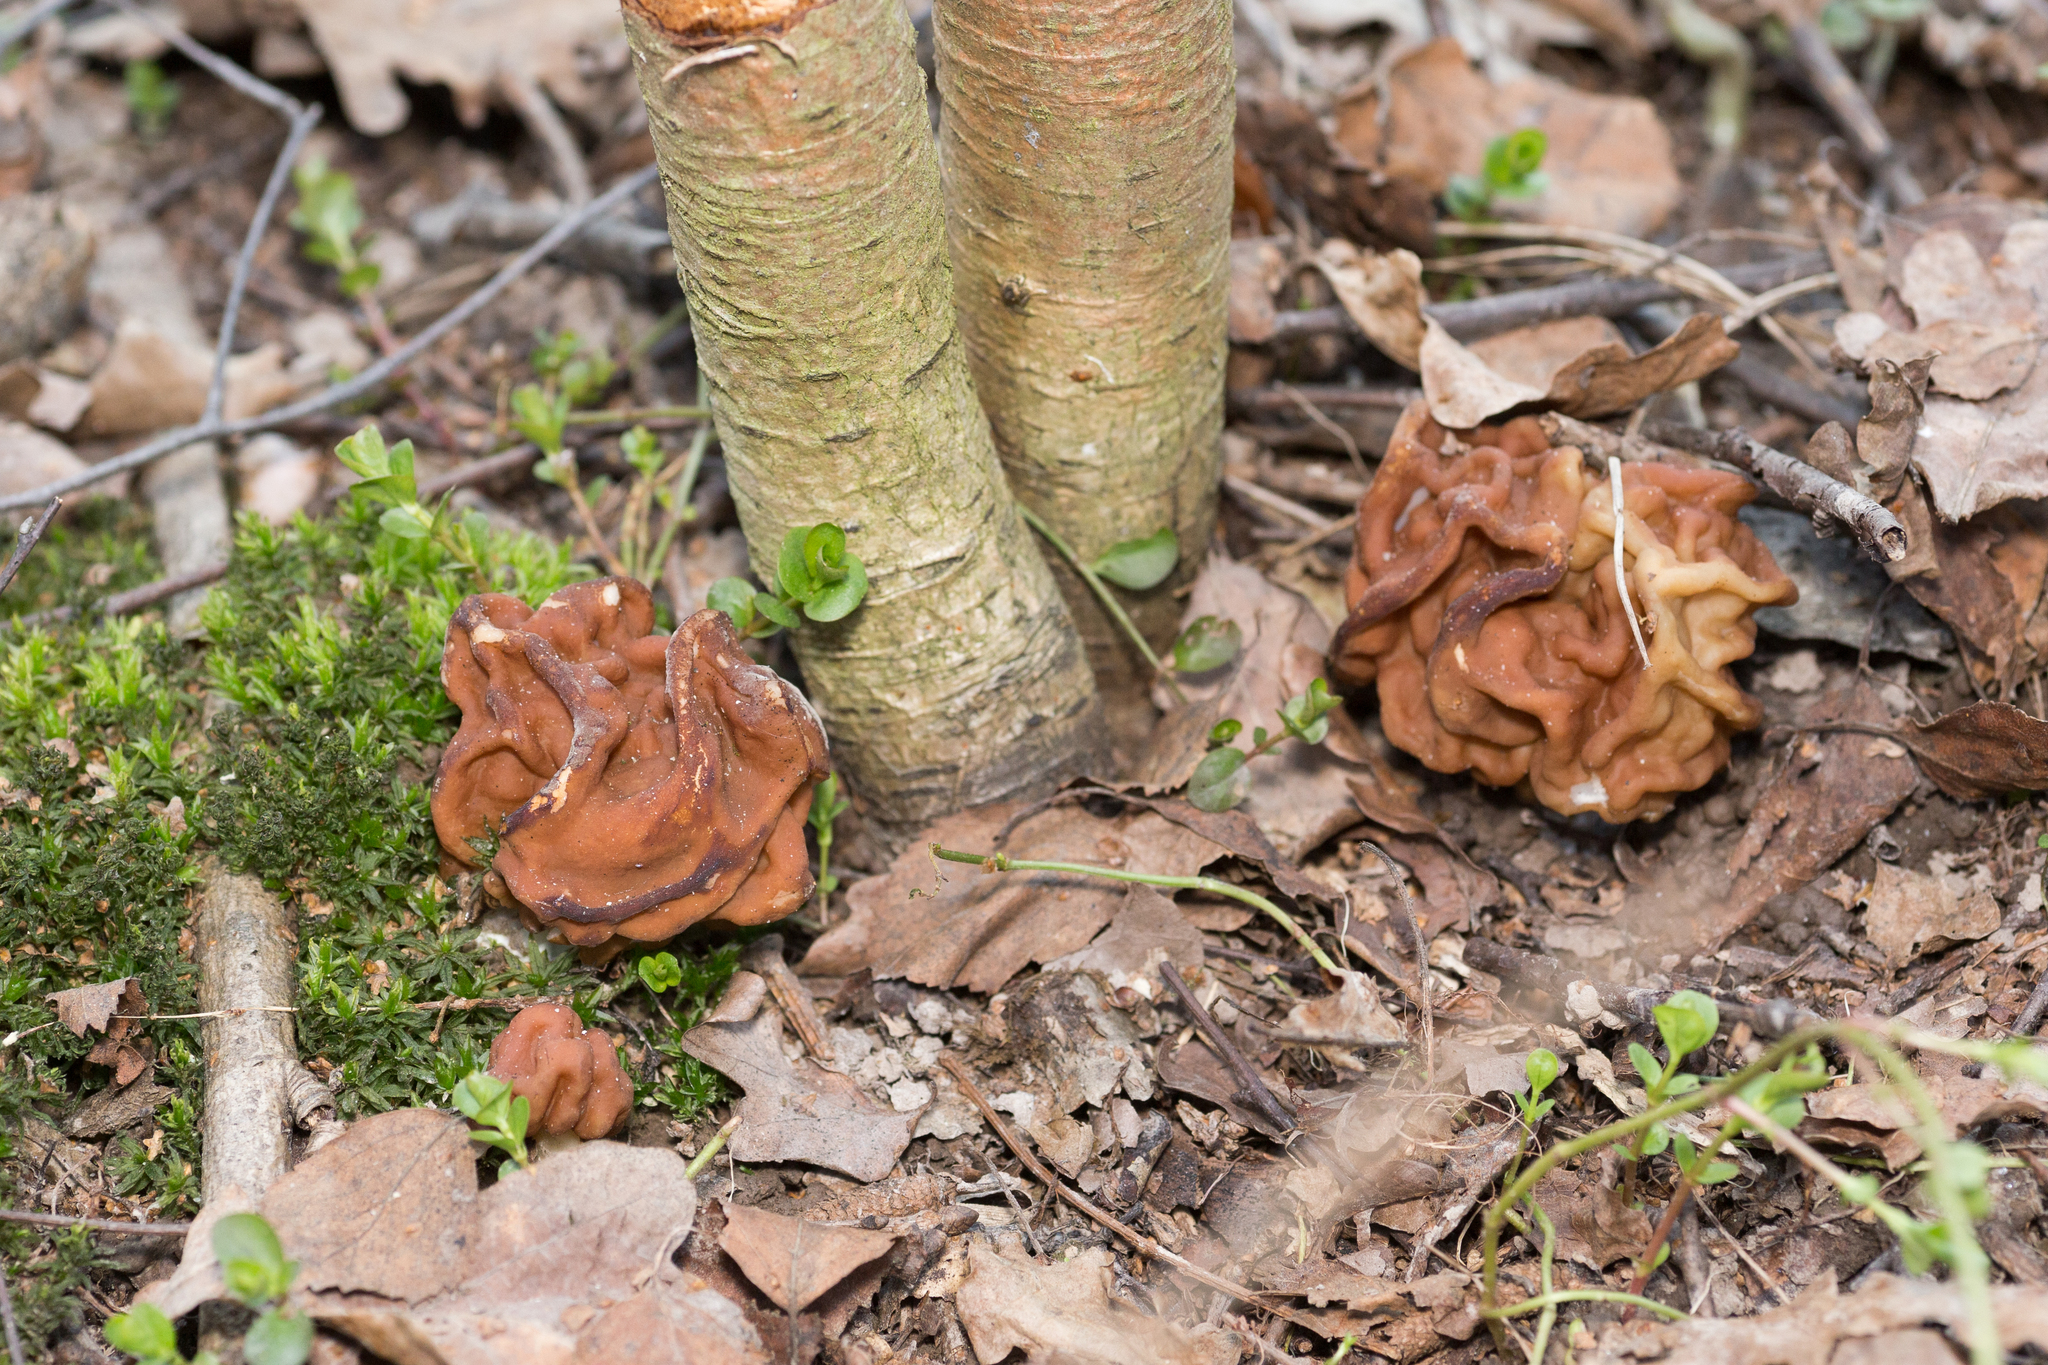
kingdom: Fungi
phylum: Ascomycota
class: Pezizomycetes
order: Pezizales
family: Discinaceae
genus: Gyromitra
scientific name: Gyromitra gigas
